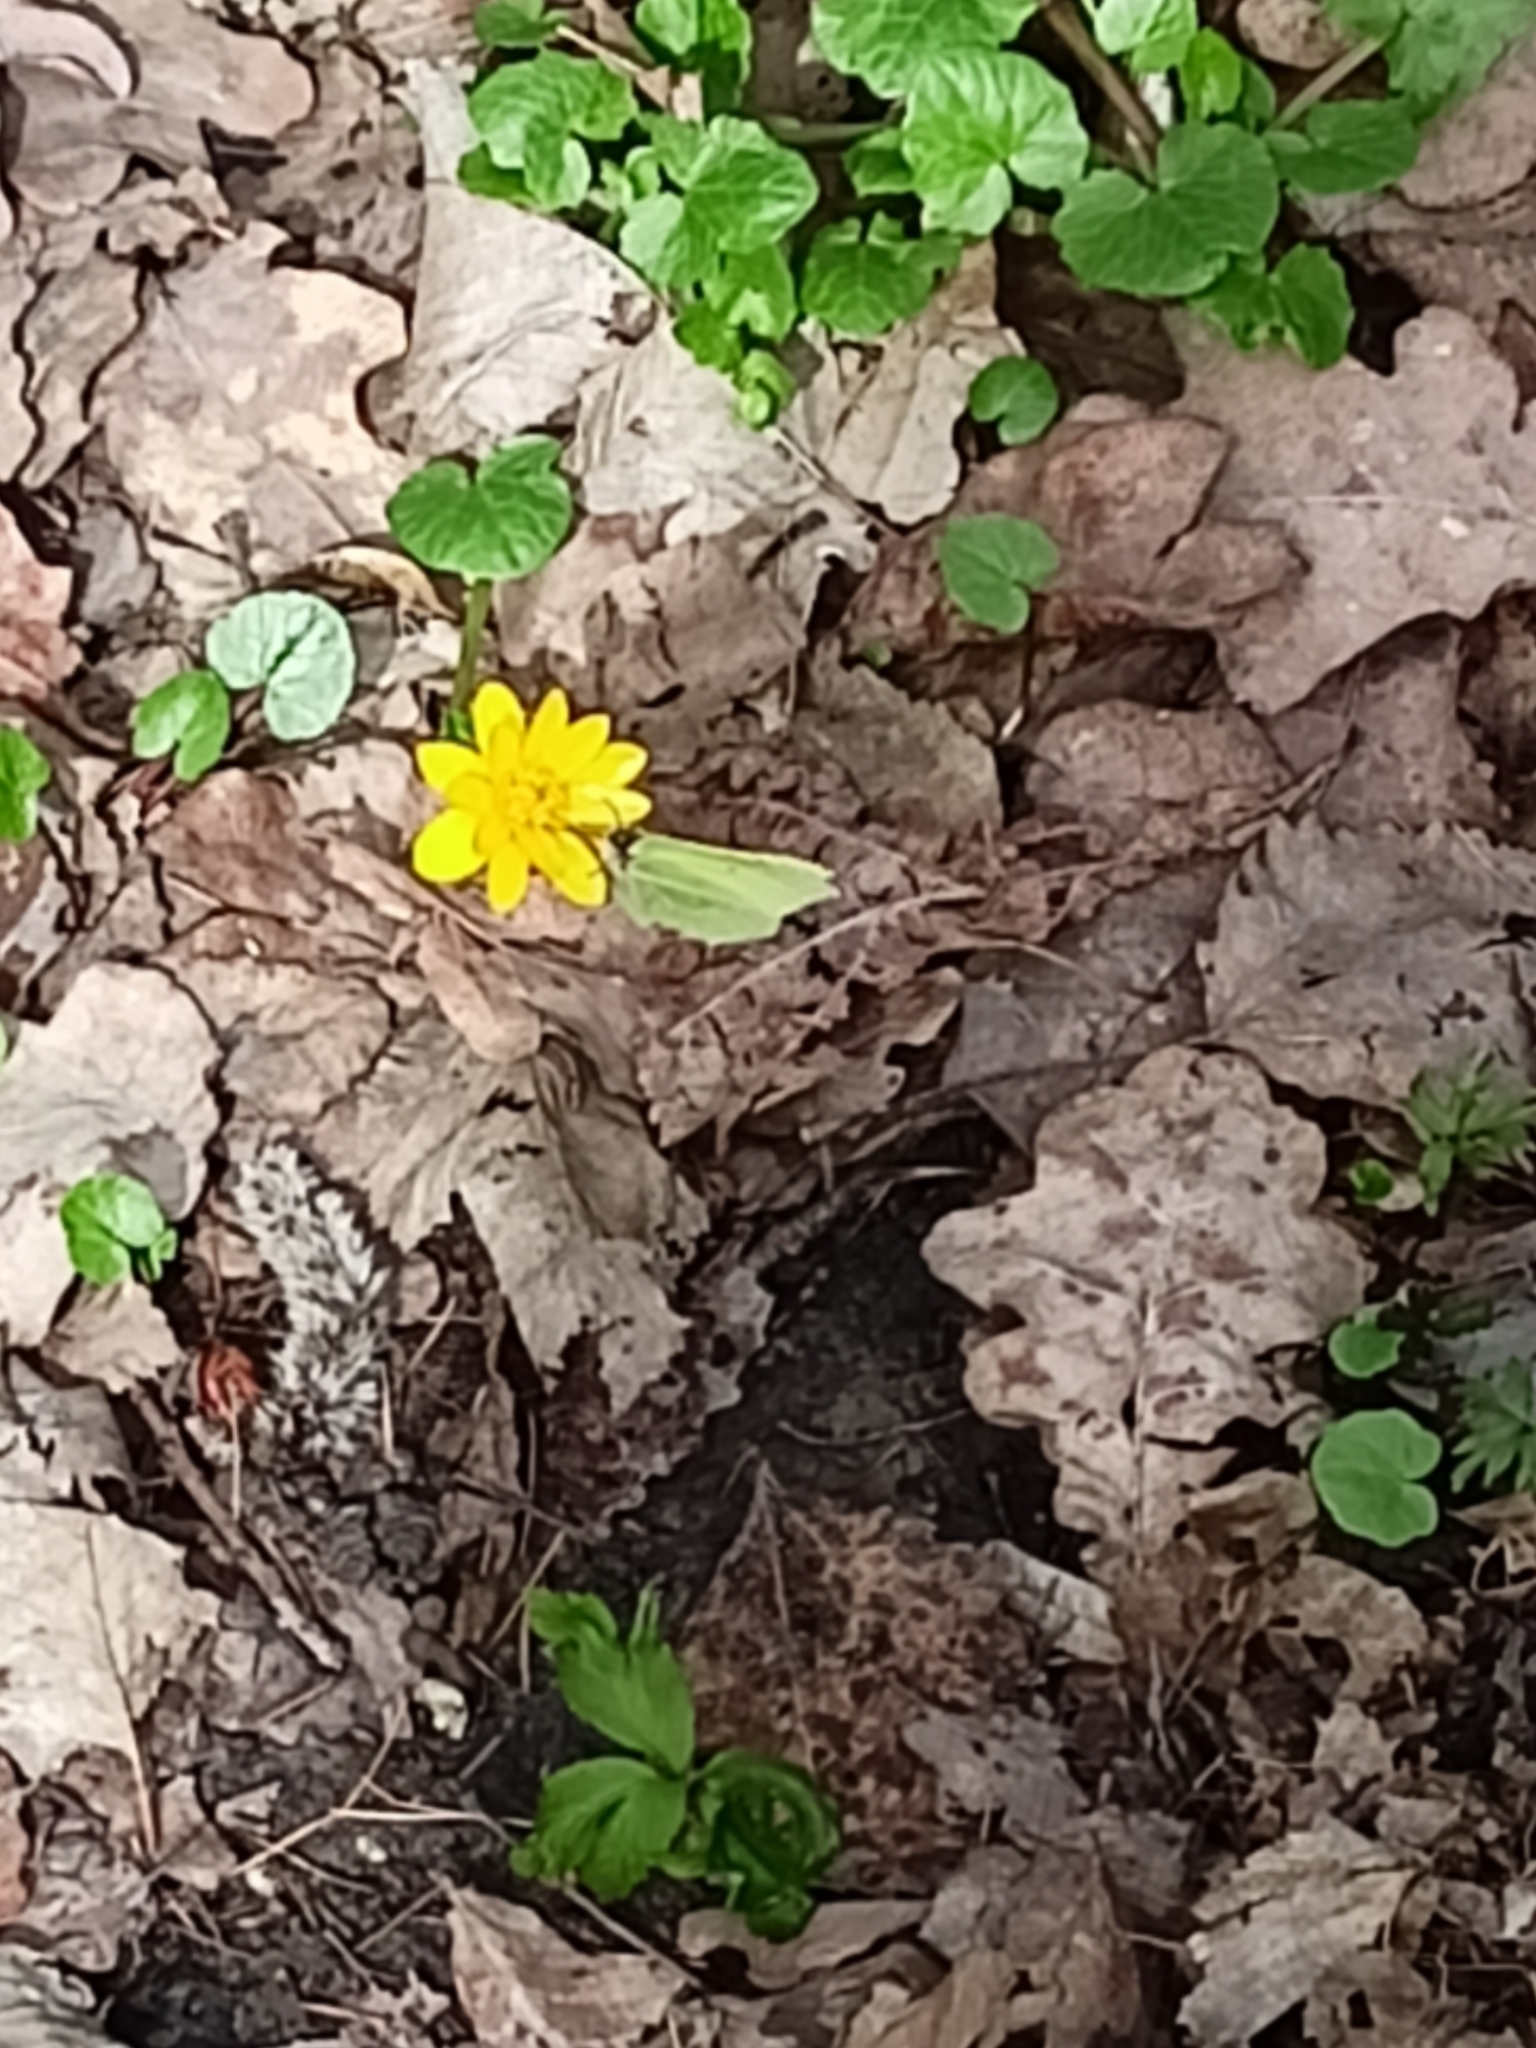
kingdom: Plantae
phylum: Tracheophyta
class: Magnoliopsida
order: Ranunculales
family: Ranunculaceae
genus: Ficaria
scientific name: Ficaria verna
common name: Lesser celandine
